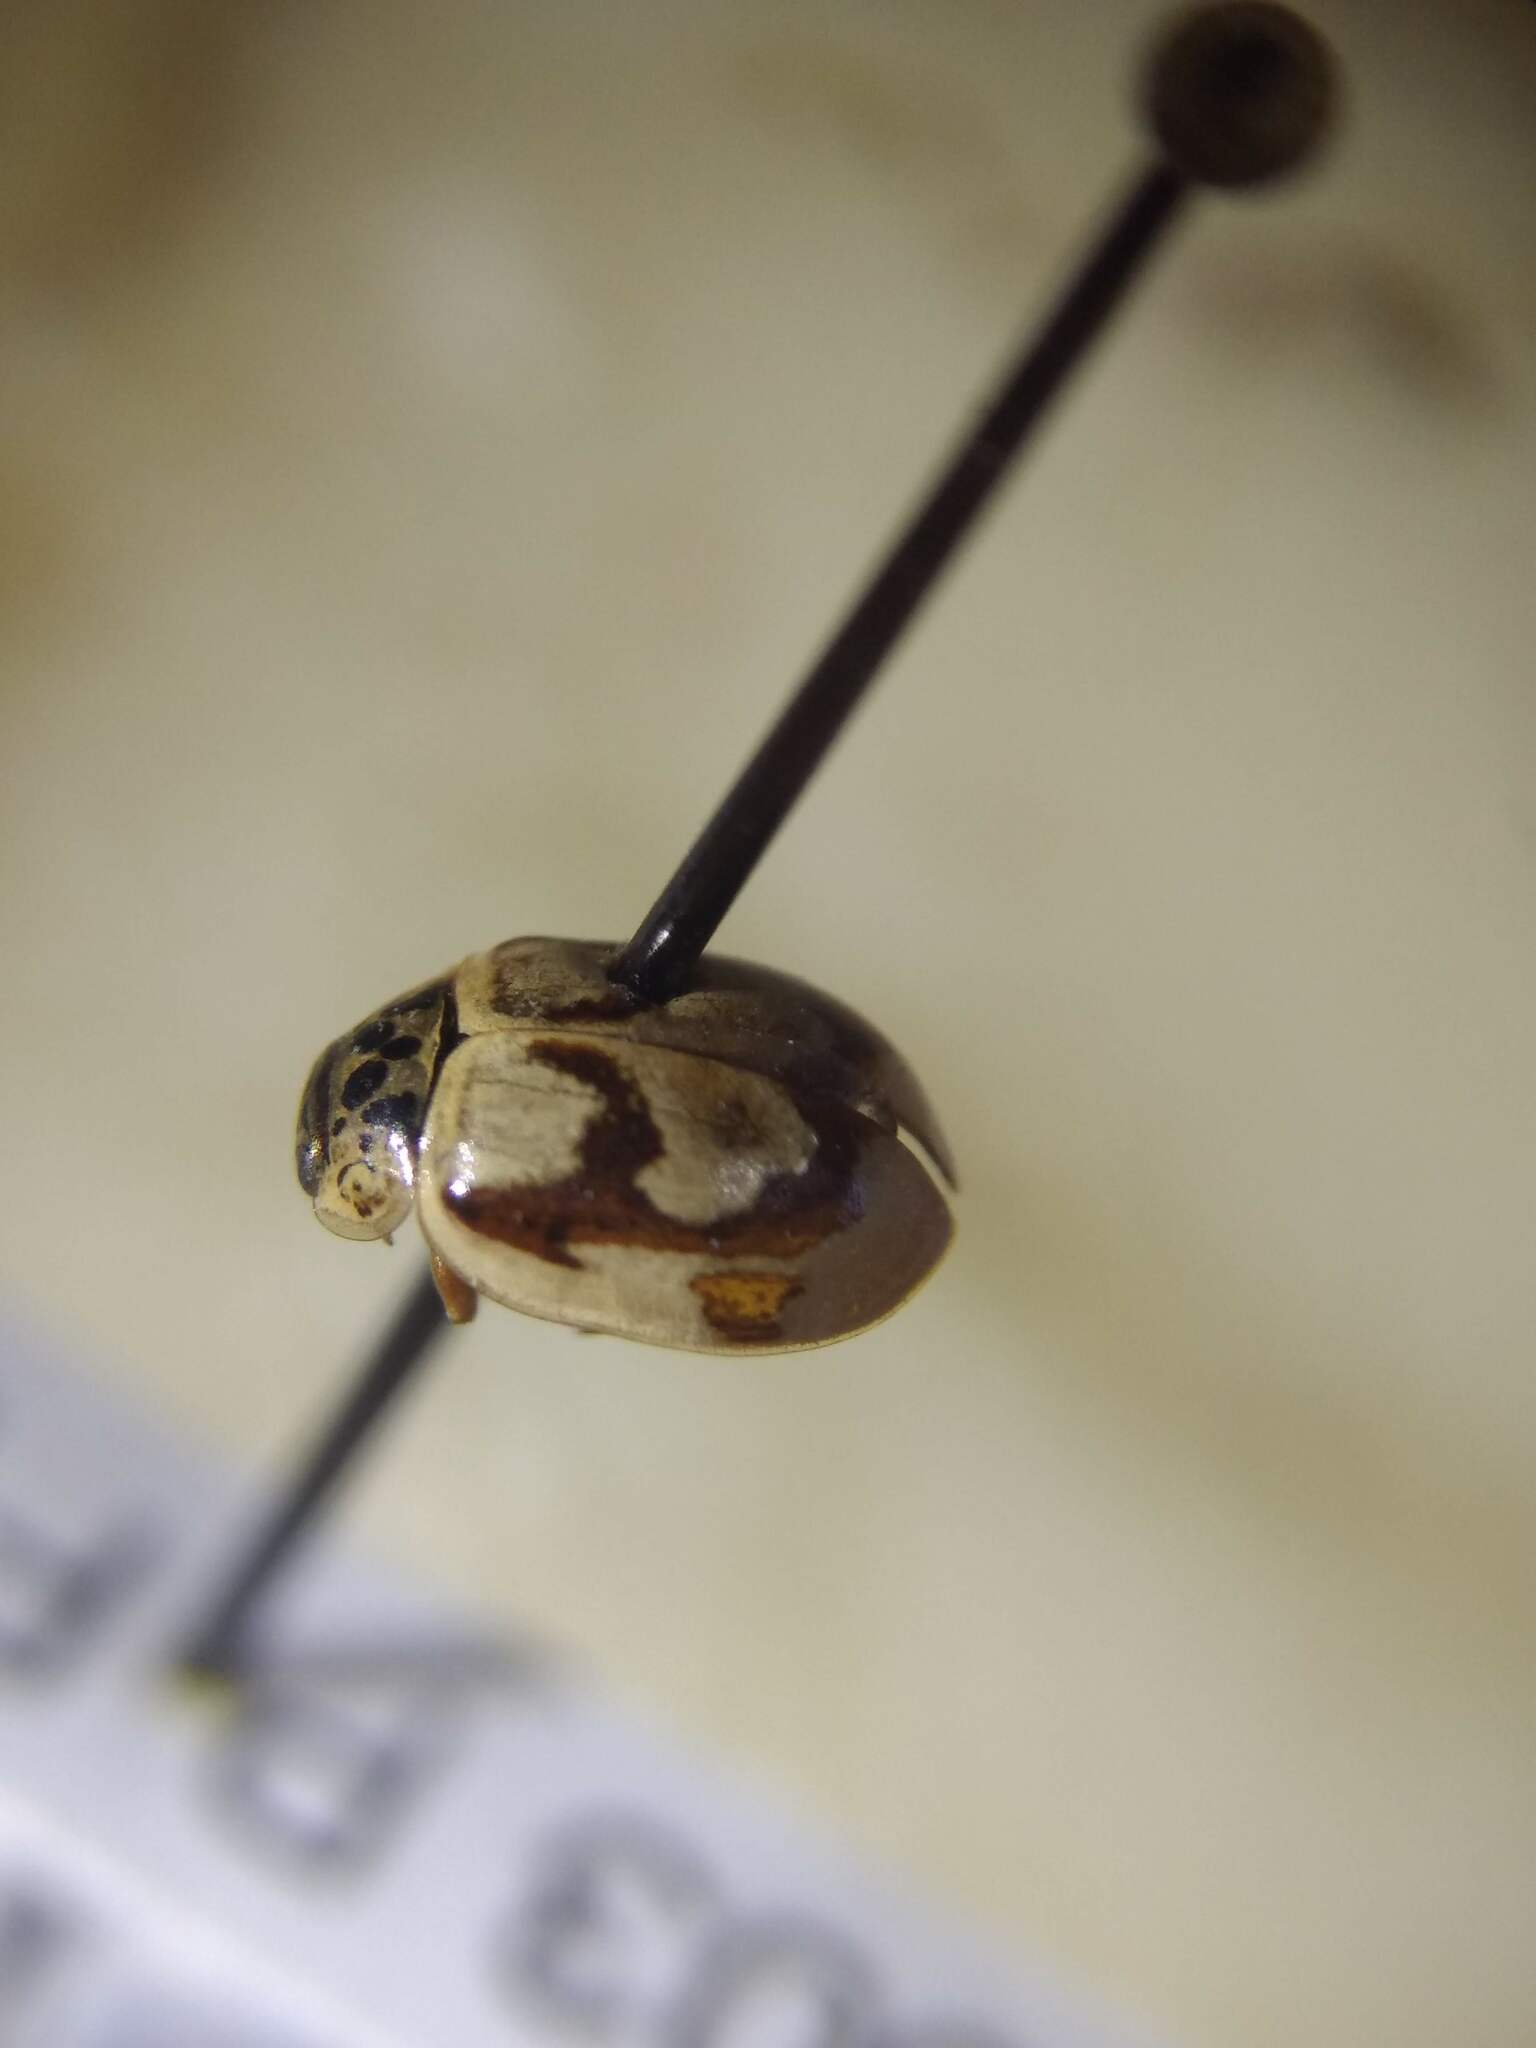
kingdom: Animalia
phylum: Arthropoda
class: Insecta
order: Coleoptera
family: Coccinellidae
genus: Mulsantina
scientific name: Mulsantina picta
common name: Painted ladybird
